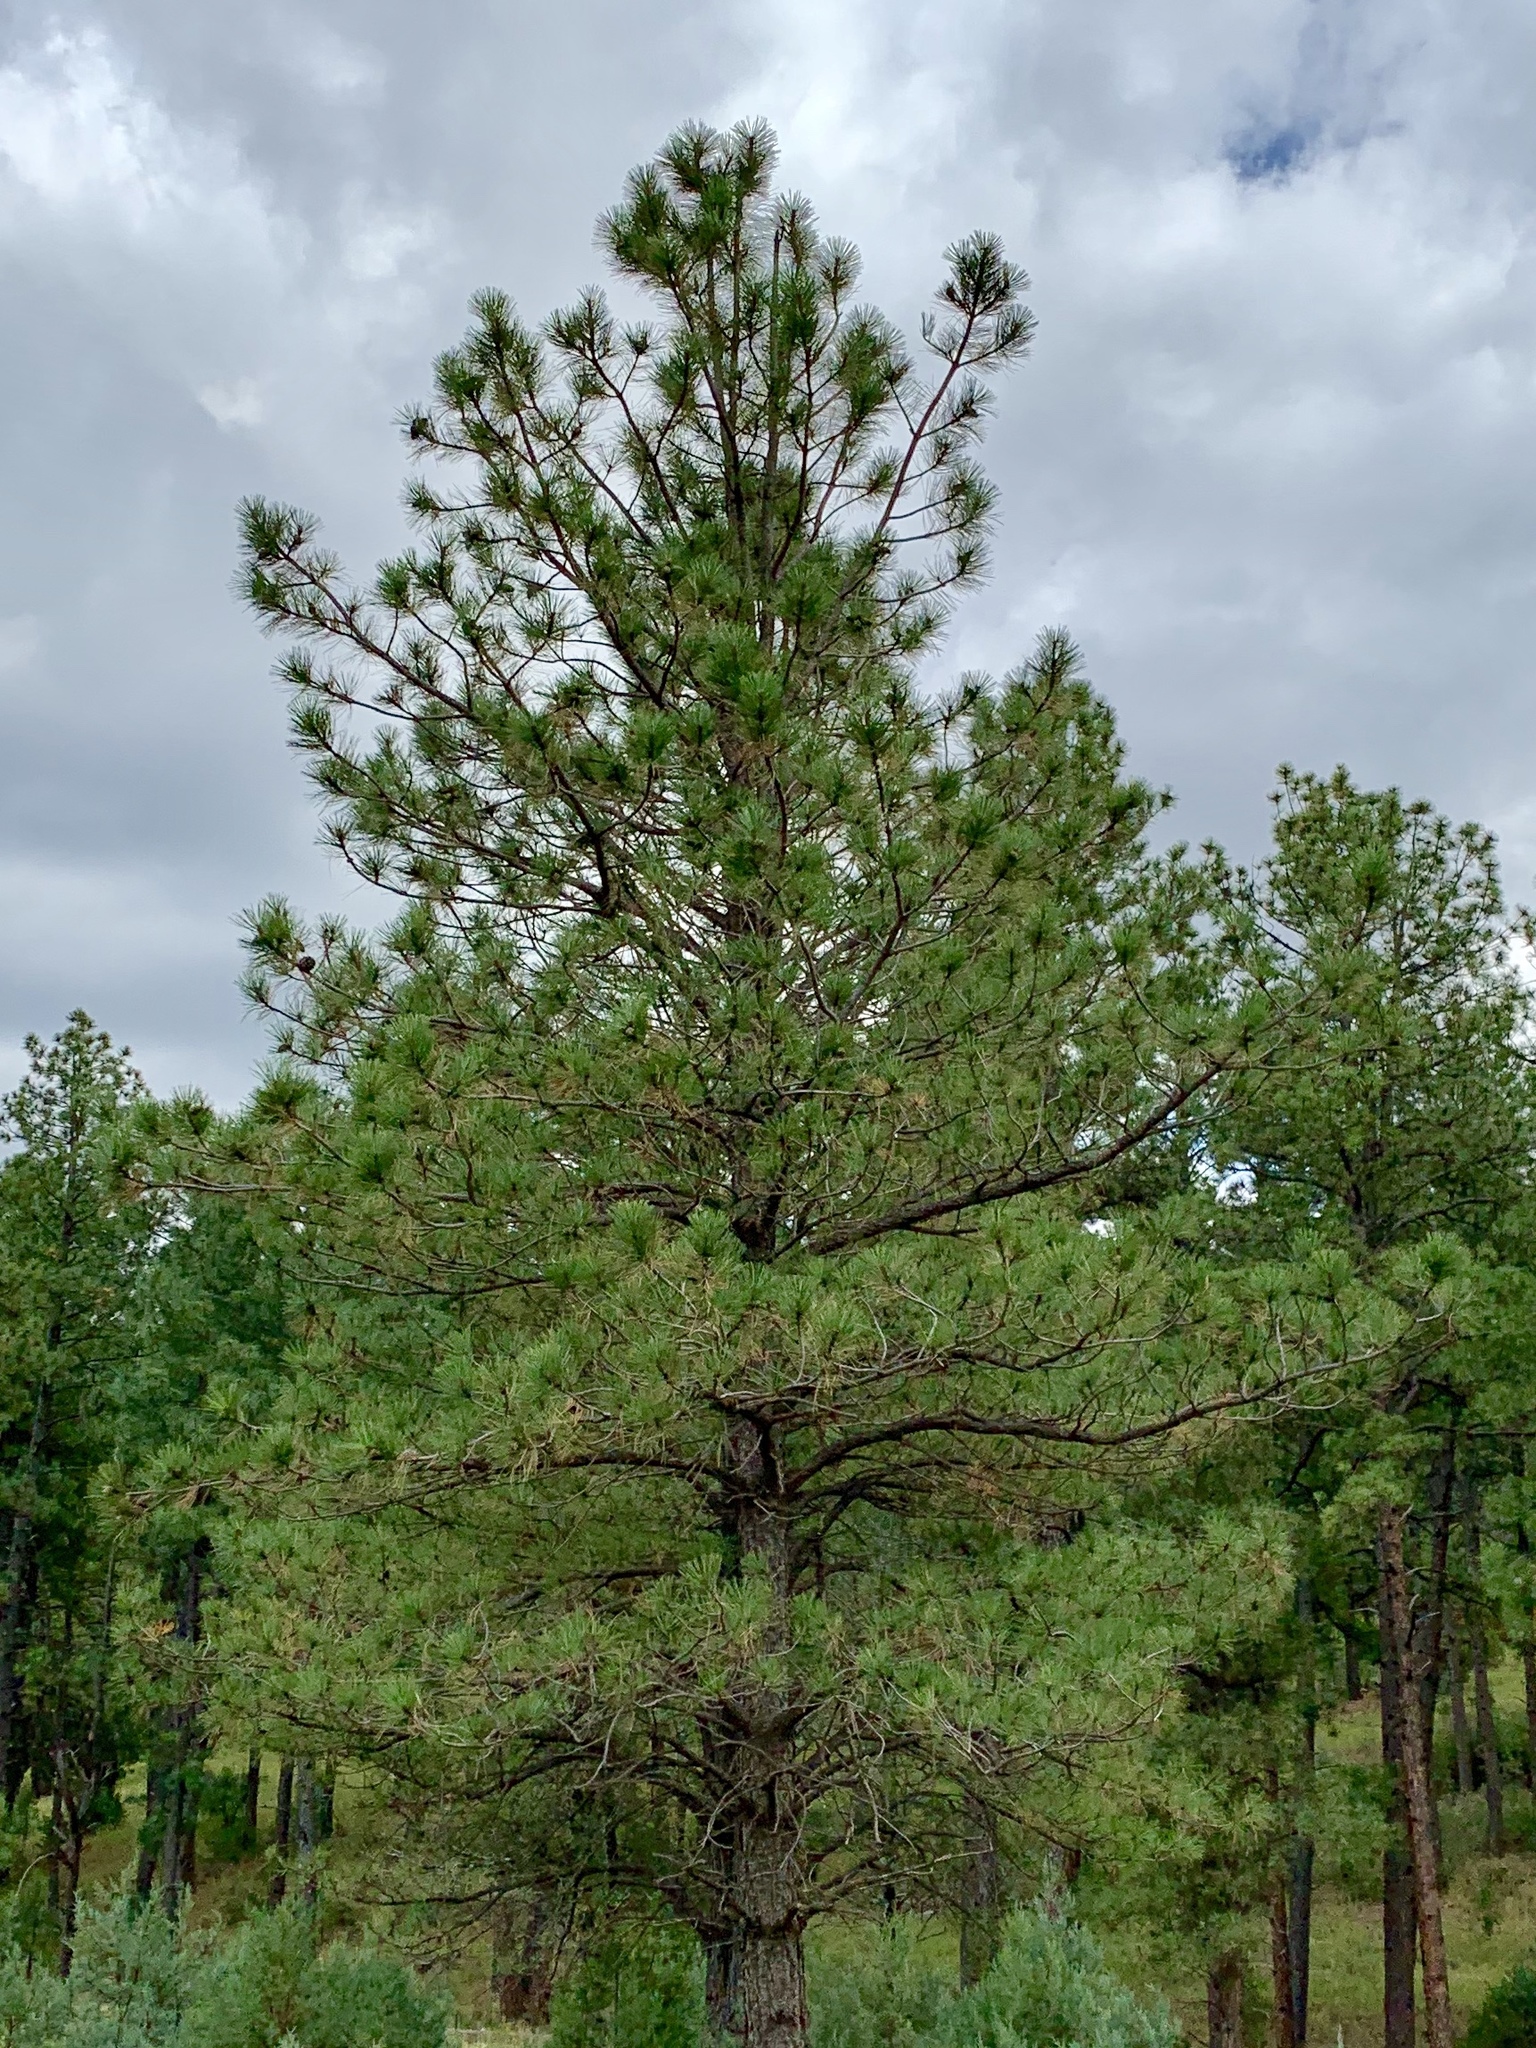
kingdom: Plantae
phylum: Tracheophyta
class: Pinopsida
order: Pinales
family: Pinaceae
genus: Pinus
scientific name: Pinus ponderosa
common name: Western yellow-pine
